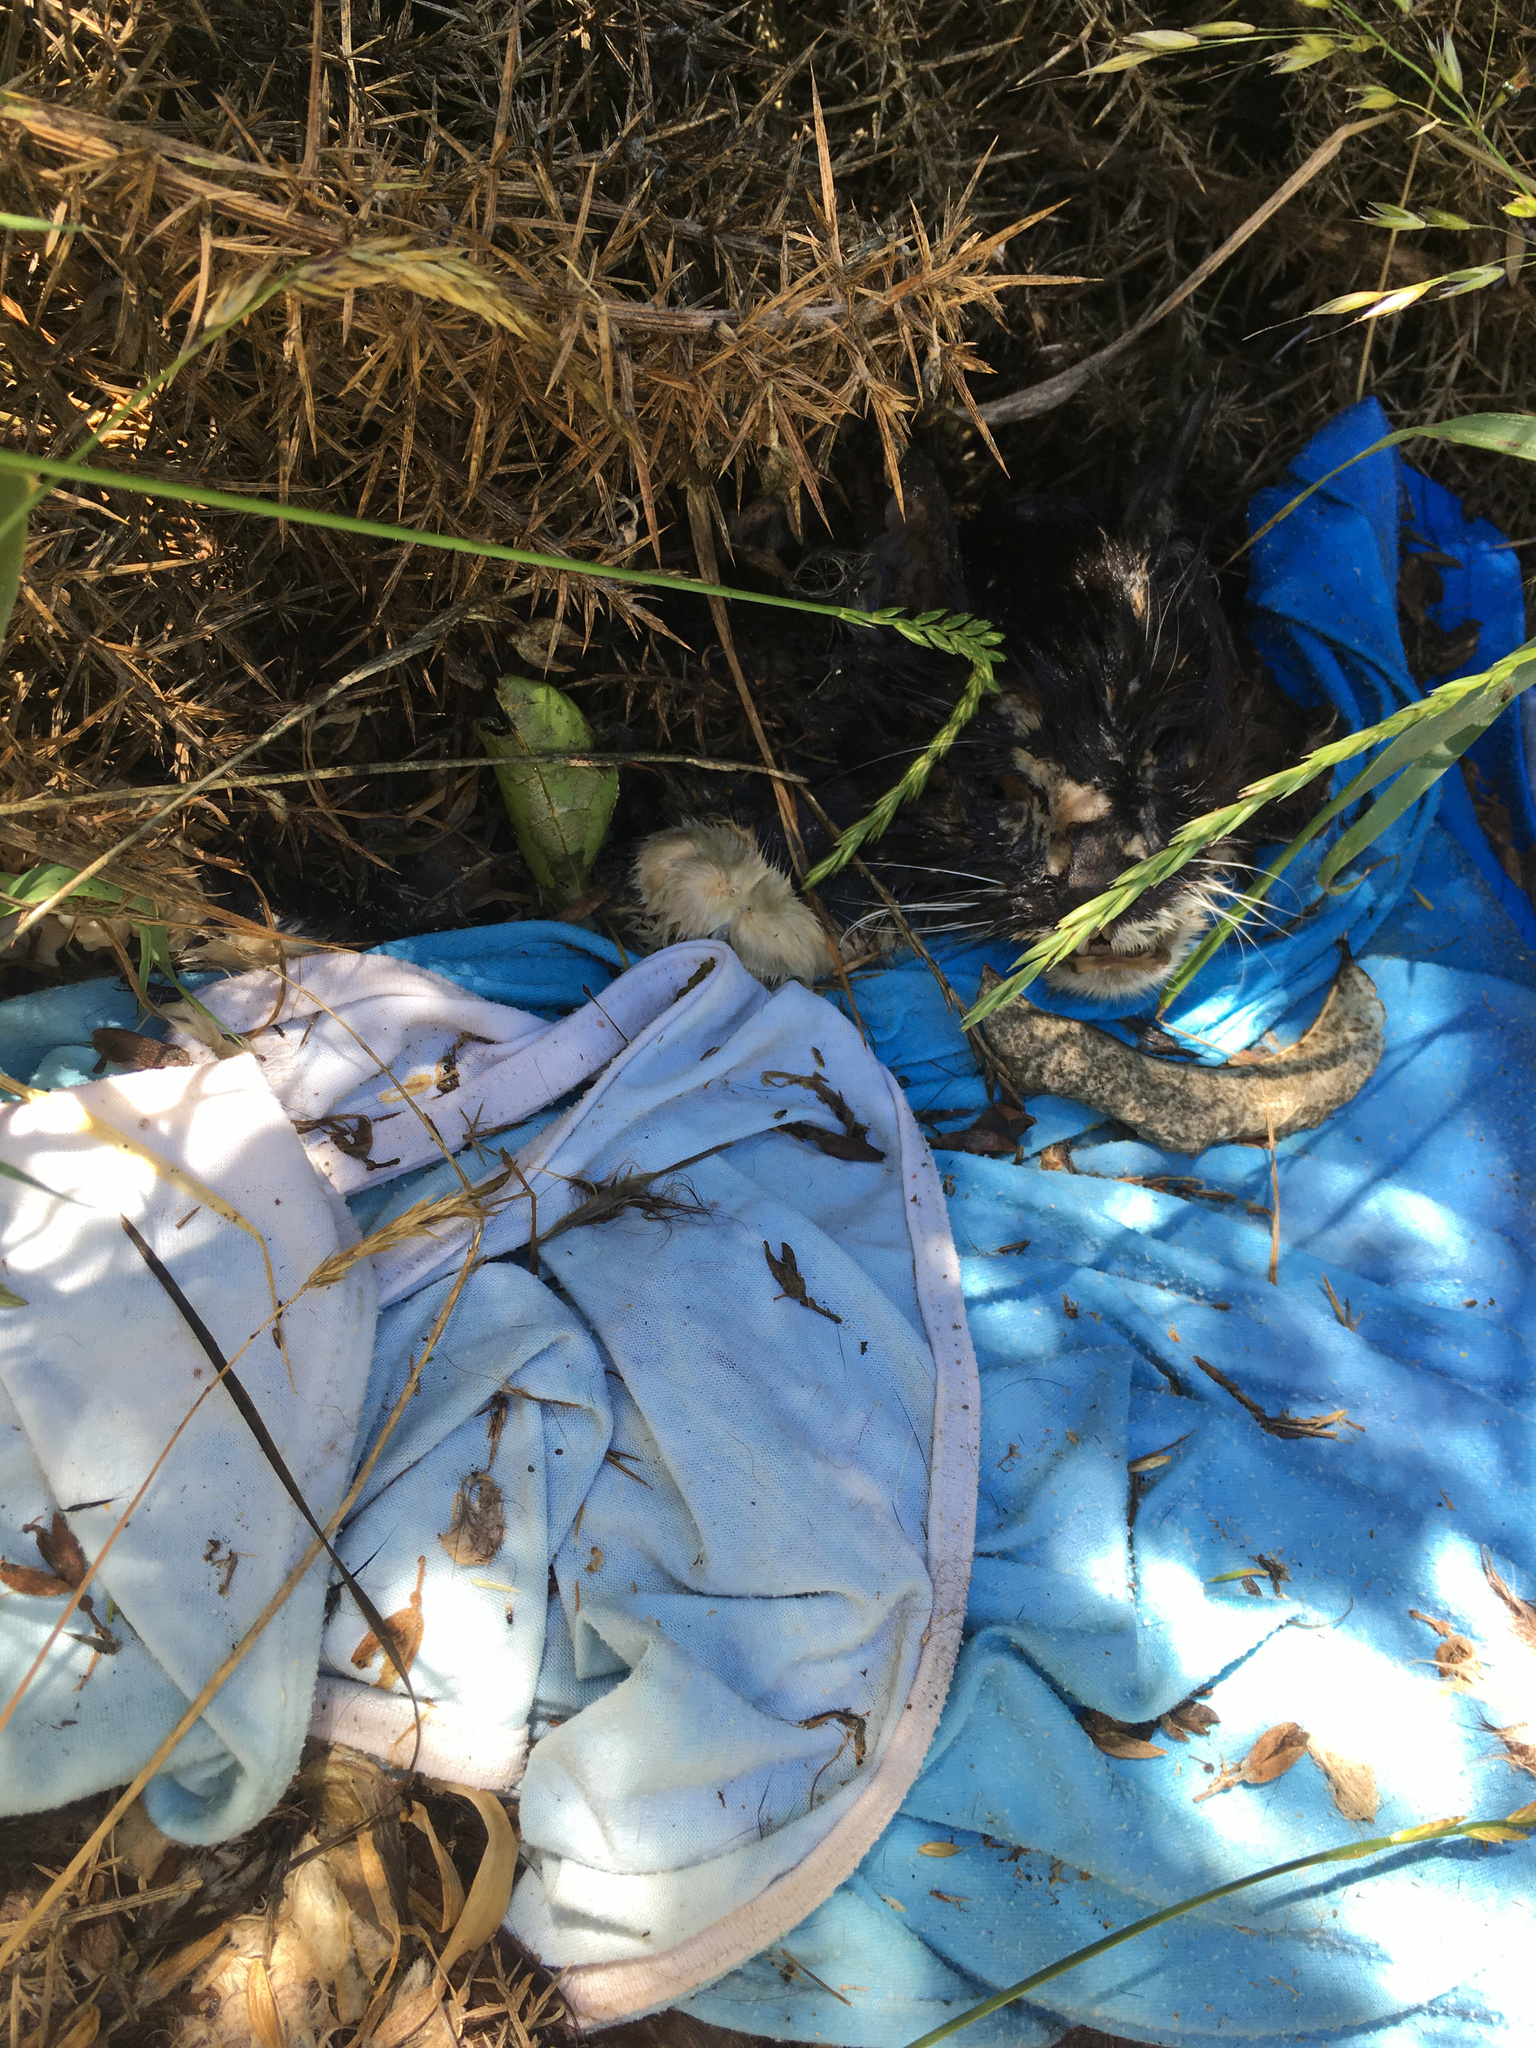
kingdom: Animalia
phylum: Chordata
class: Mammalia
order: Carnivora
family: Felidae
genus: Felis
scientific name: Felis catus
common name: Domestic cat
